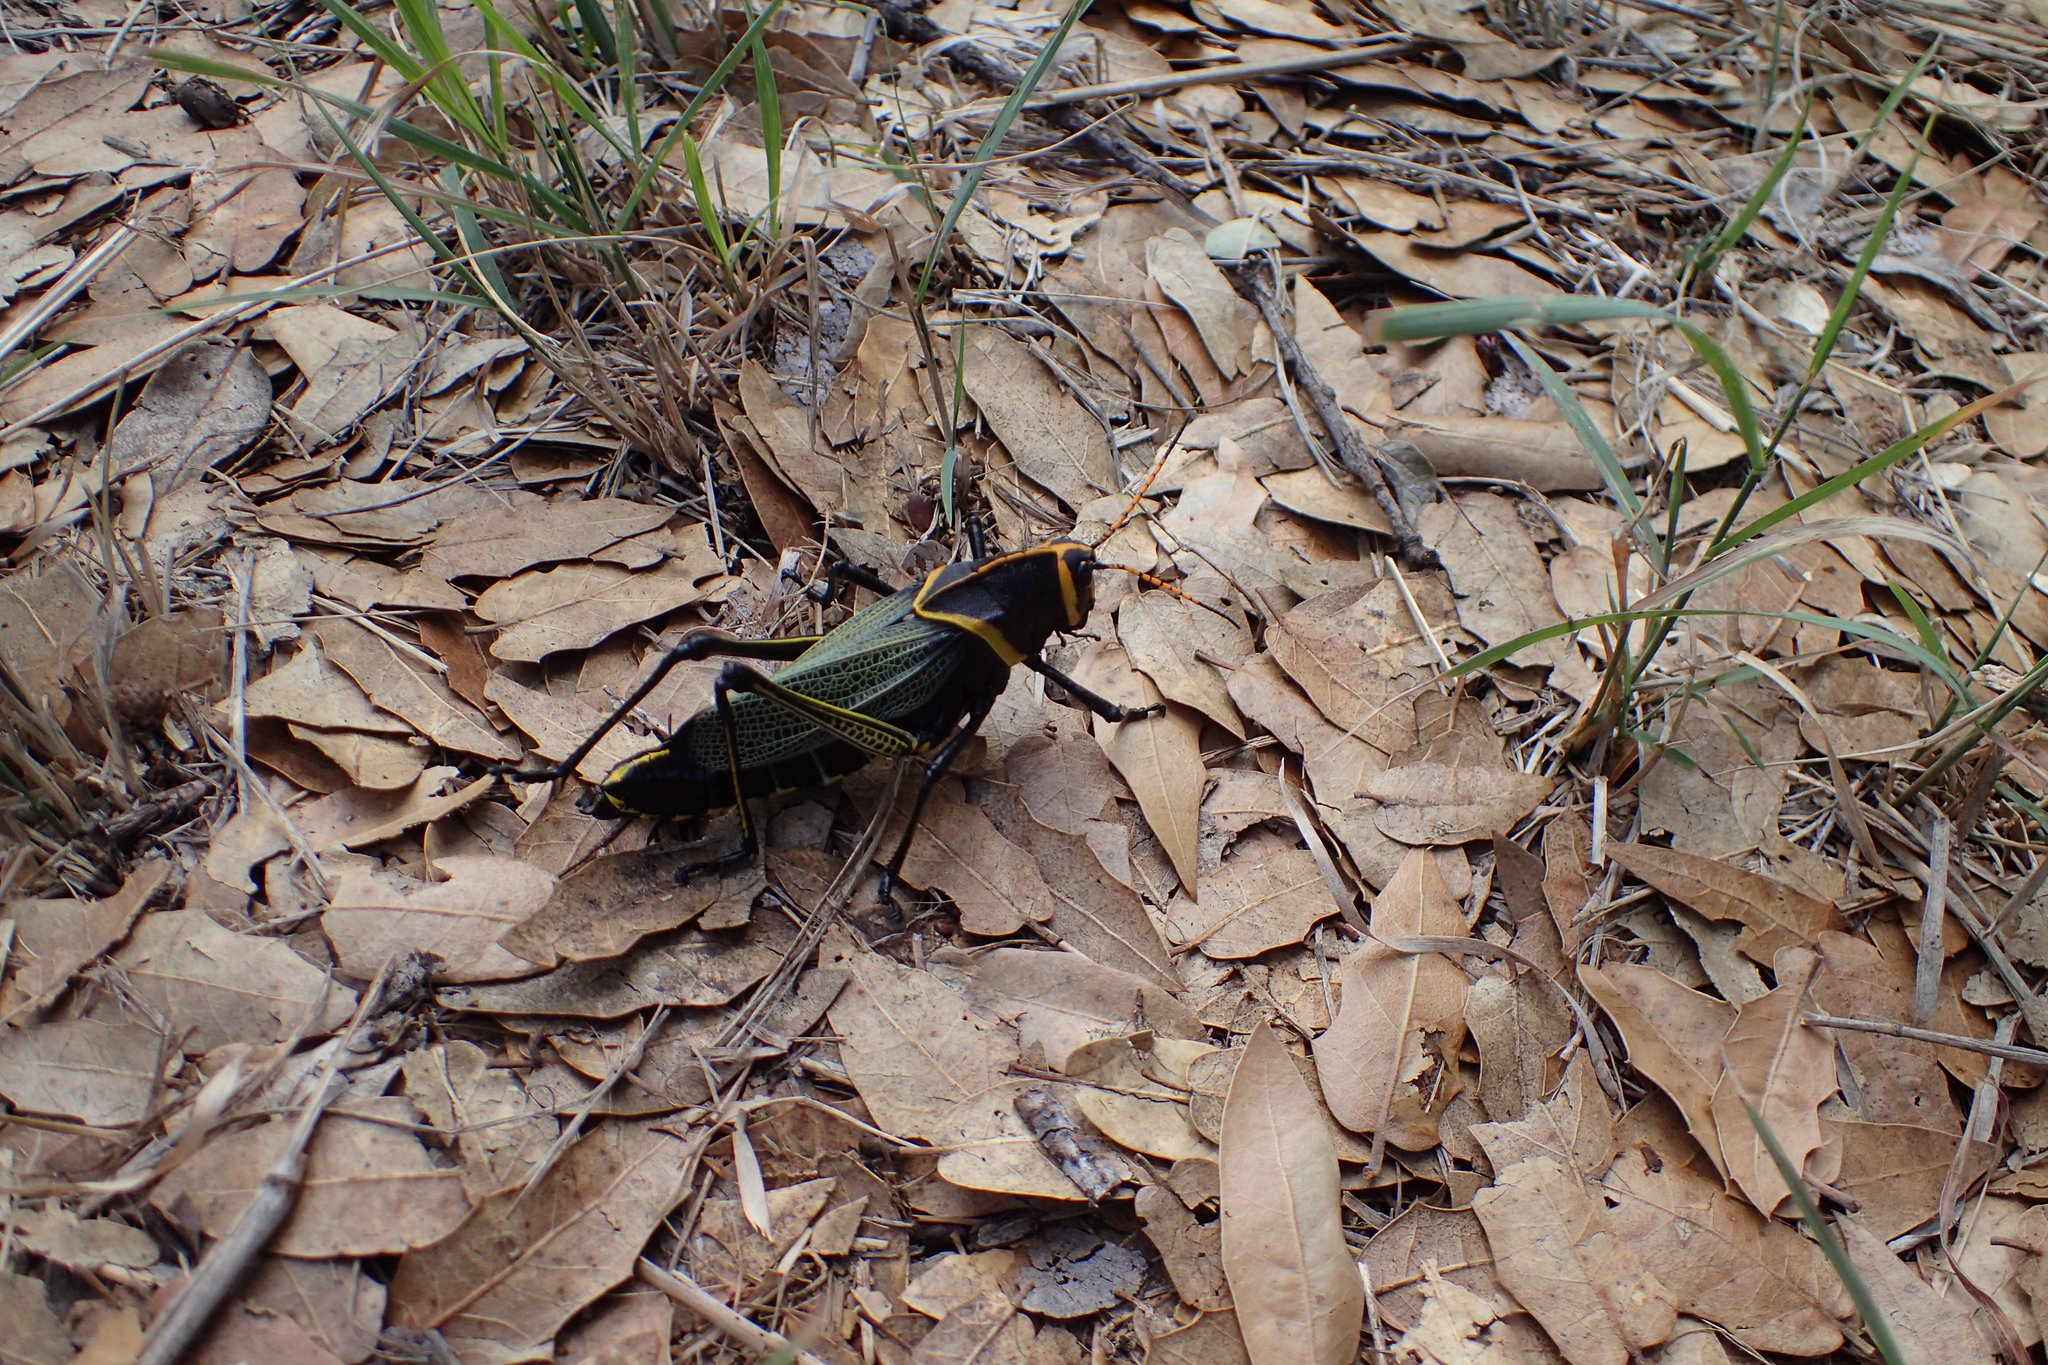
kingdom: Animalia
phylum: Arthropoda
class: Insecta
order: Orthoptera
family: Romaleidae
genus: Romalea
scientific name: Romalea
